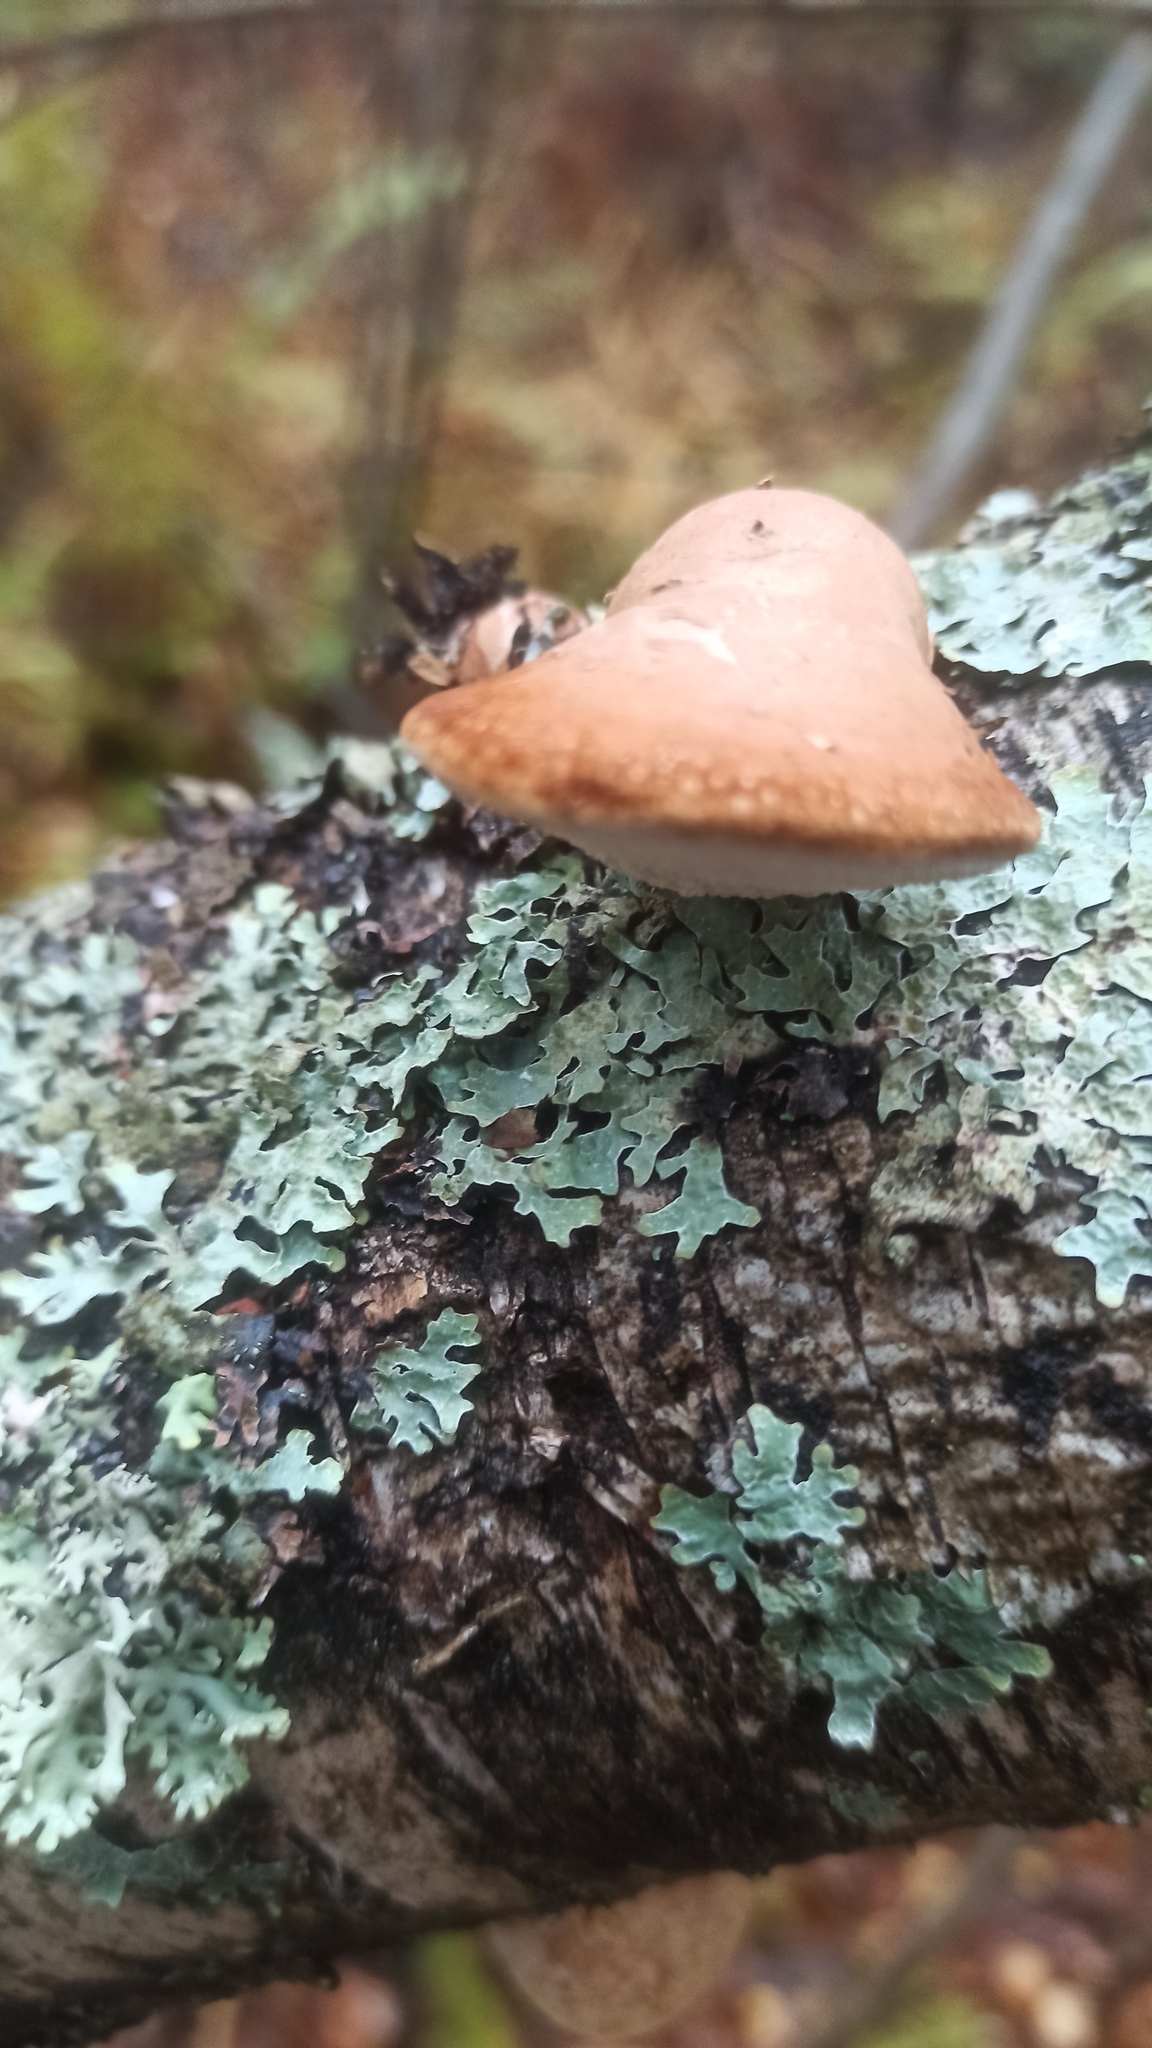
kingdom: Fungi
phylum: Basidiomycota
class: Agaricomycetes
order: Polyporales
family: Fomitopsidaceae
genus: Fomitopsis
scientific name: Fomitopsis betulina
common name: Birch polypore
